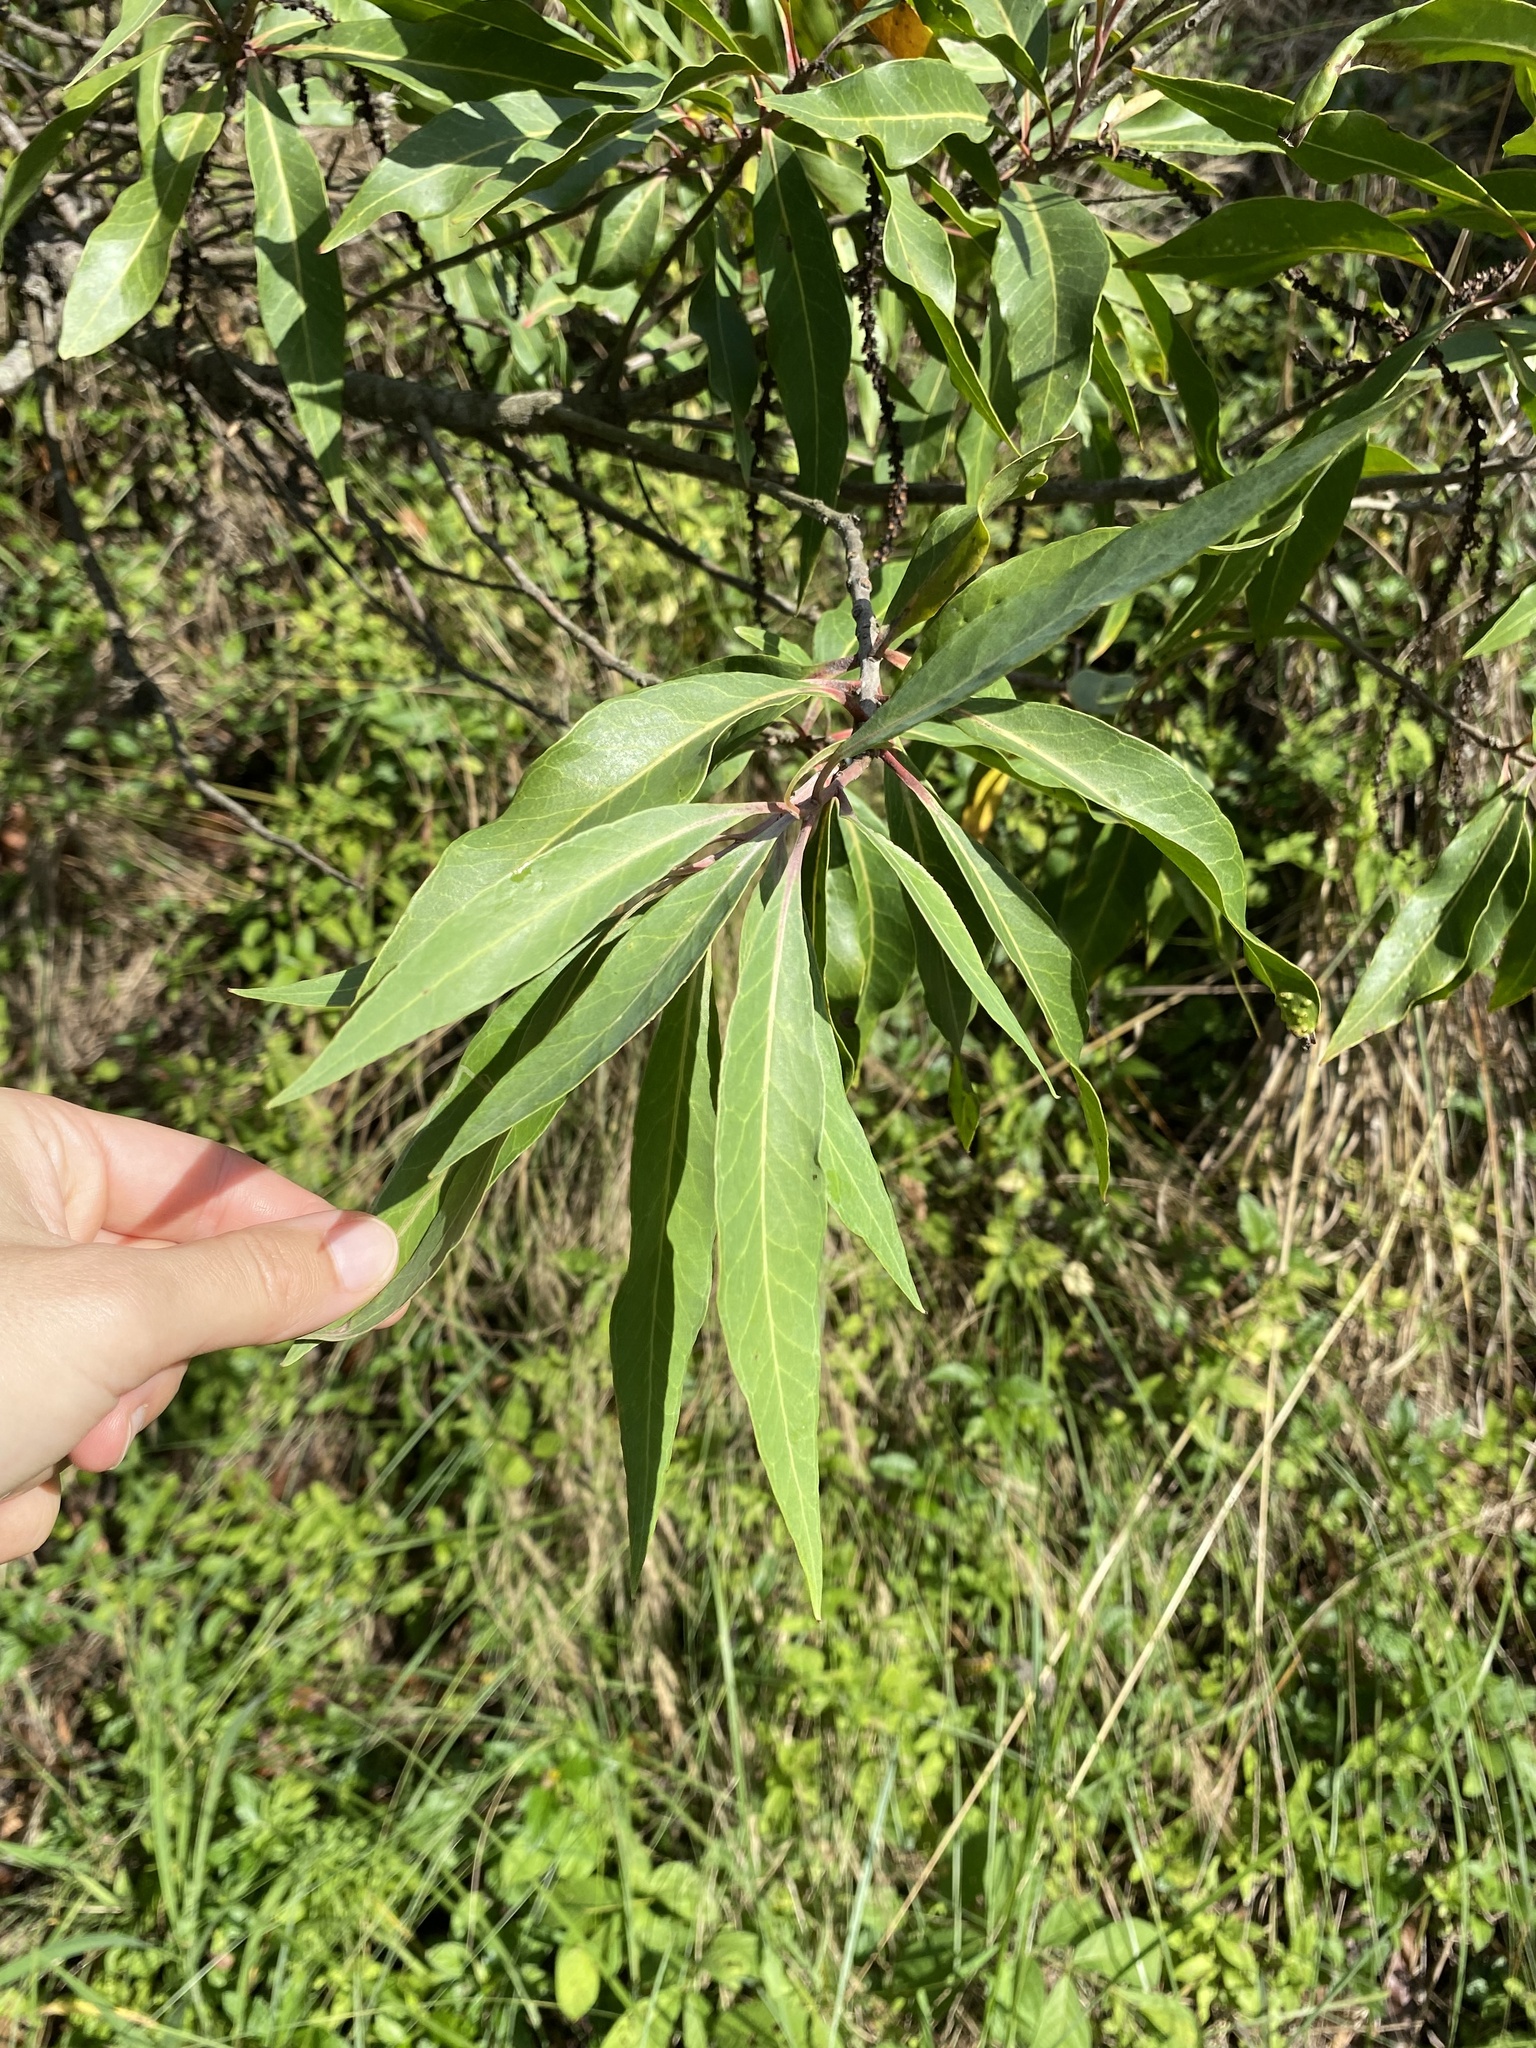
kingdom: Plantae
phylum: Tracheophyta
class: Magnoliopsida
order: Proteales
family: Proteaceae
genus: Faurea
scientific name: Faurea saligna
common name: African bean
